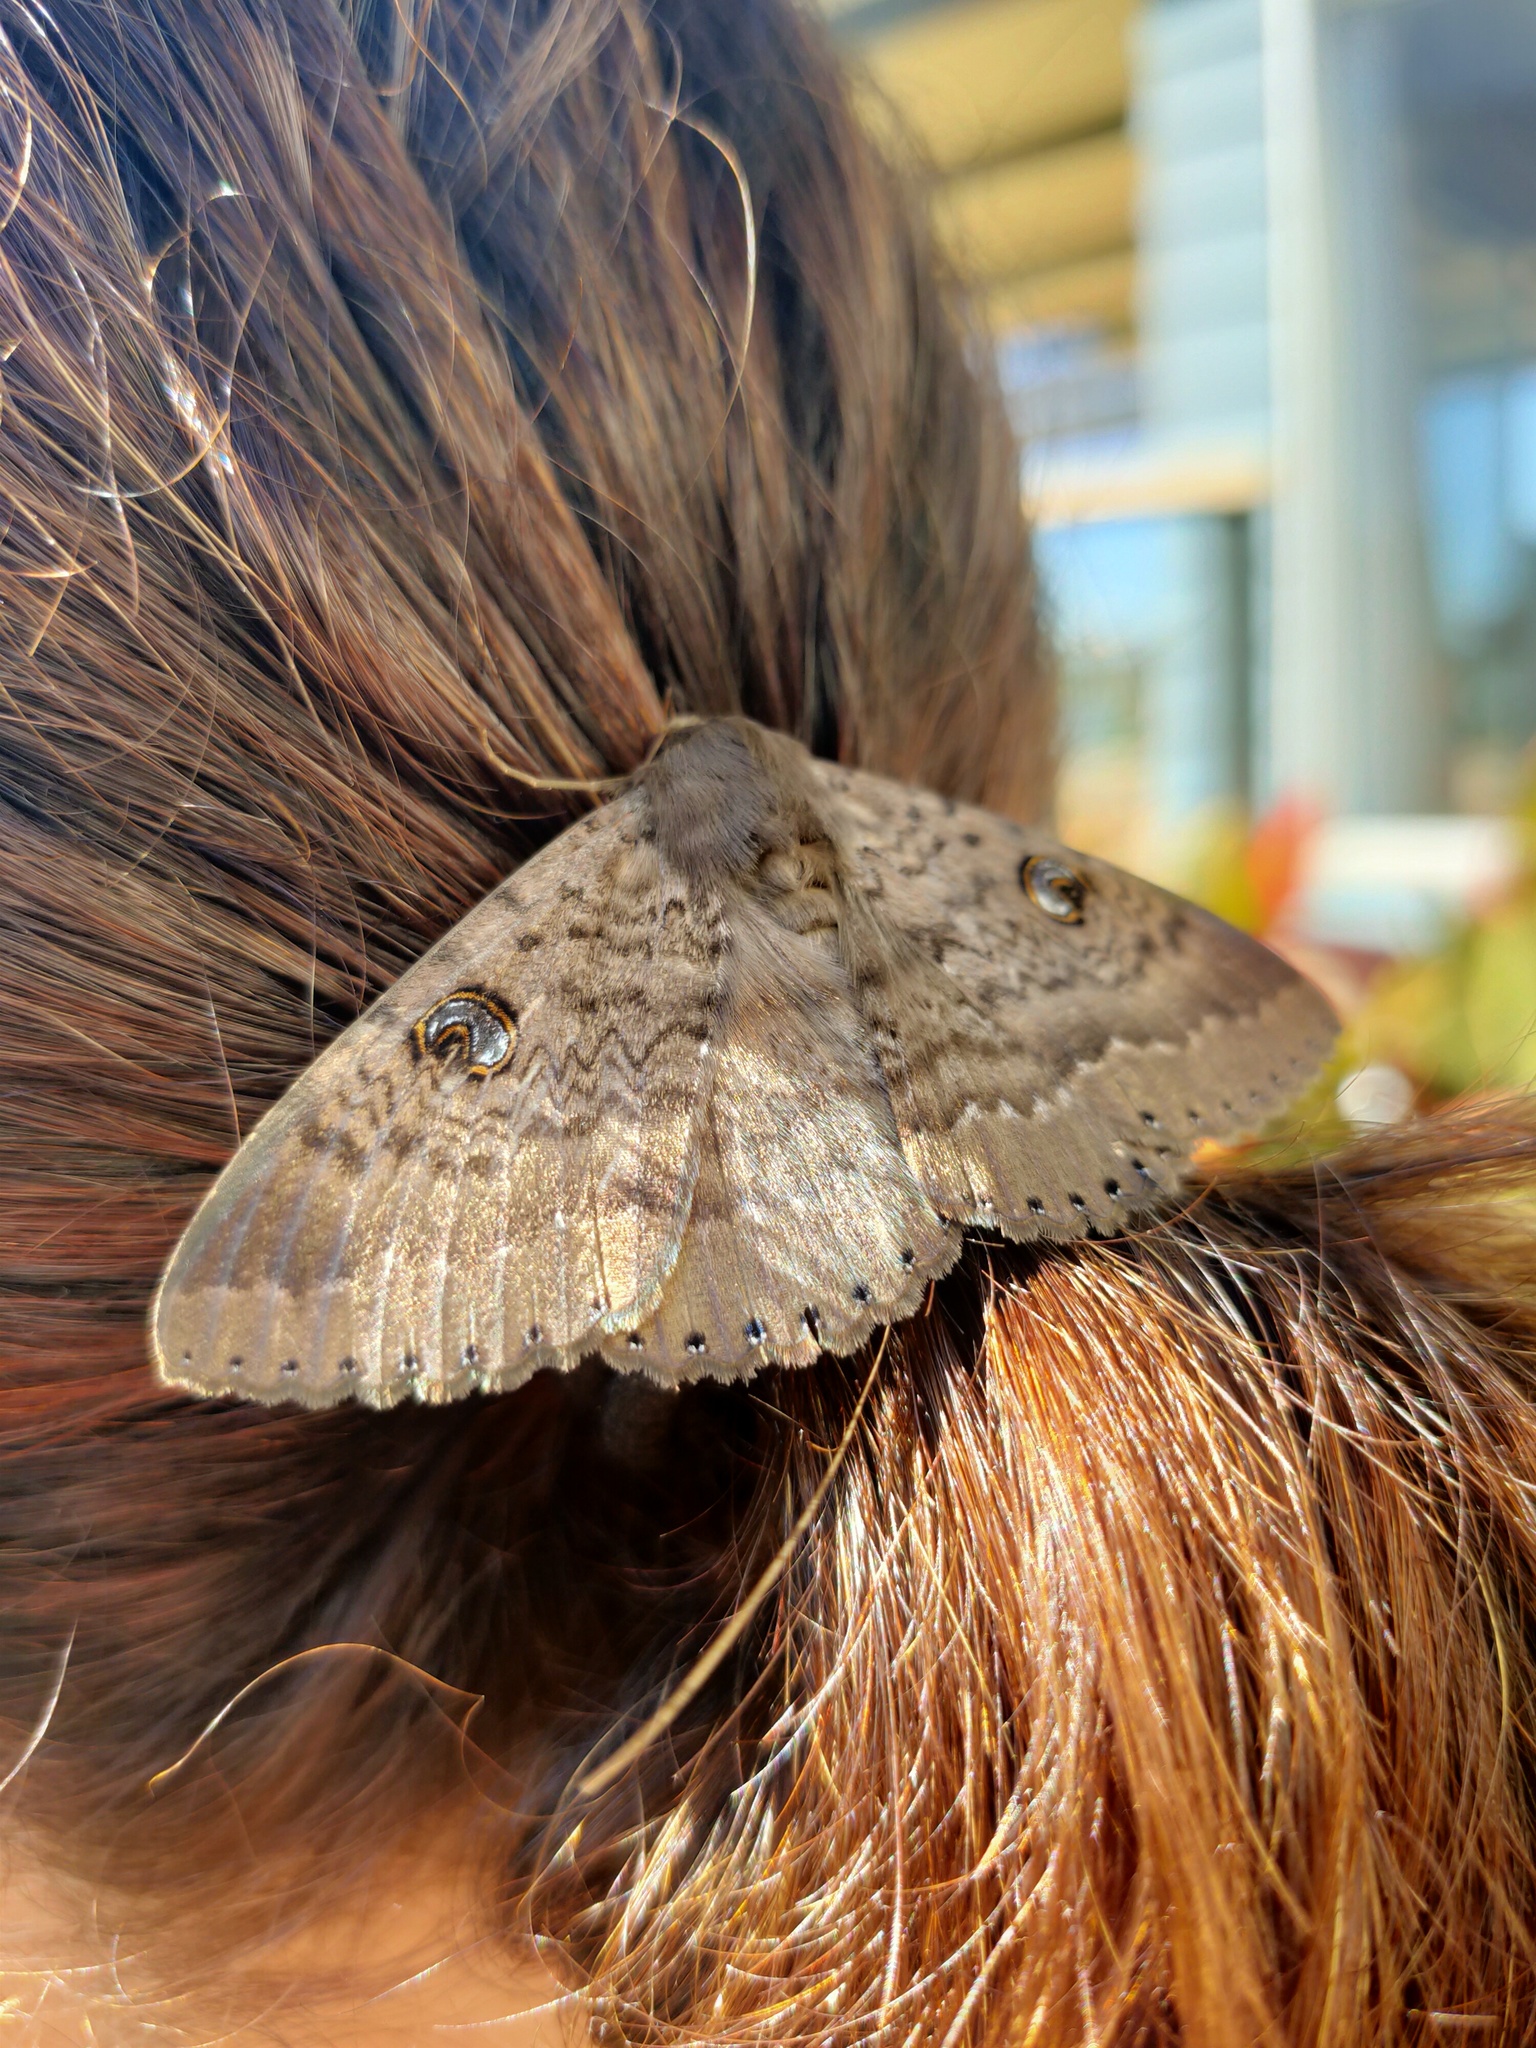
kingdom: Animalia
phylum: Arthropoda
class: Insecta
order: Lepidoptera
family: Erebidae
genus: Dasypodia
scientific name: Dasypodia cymatodes
